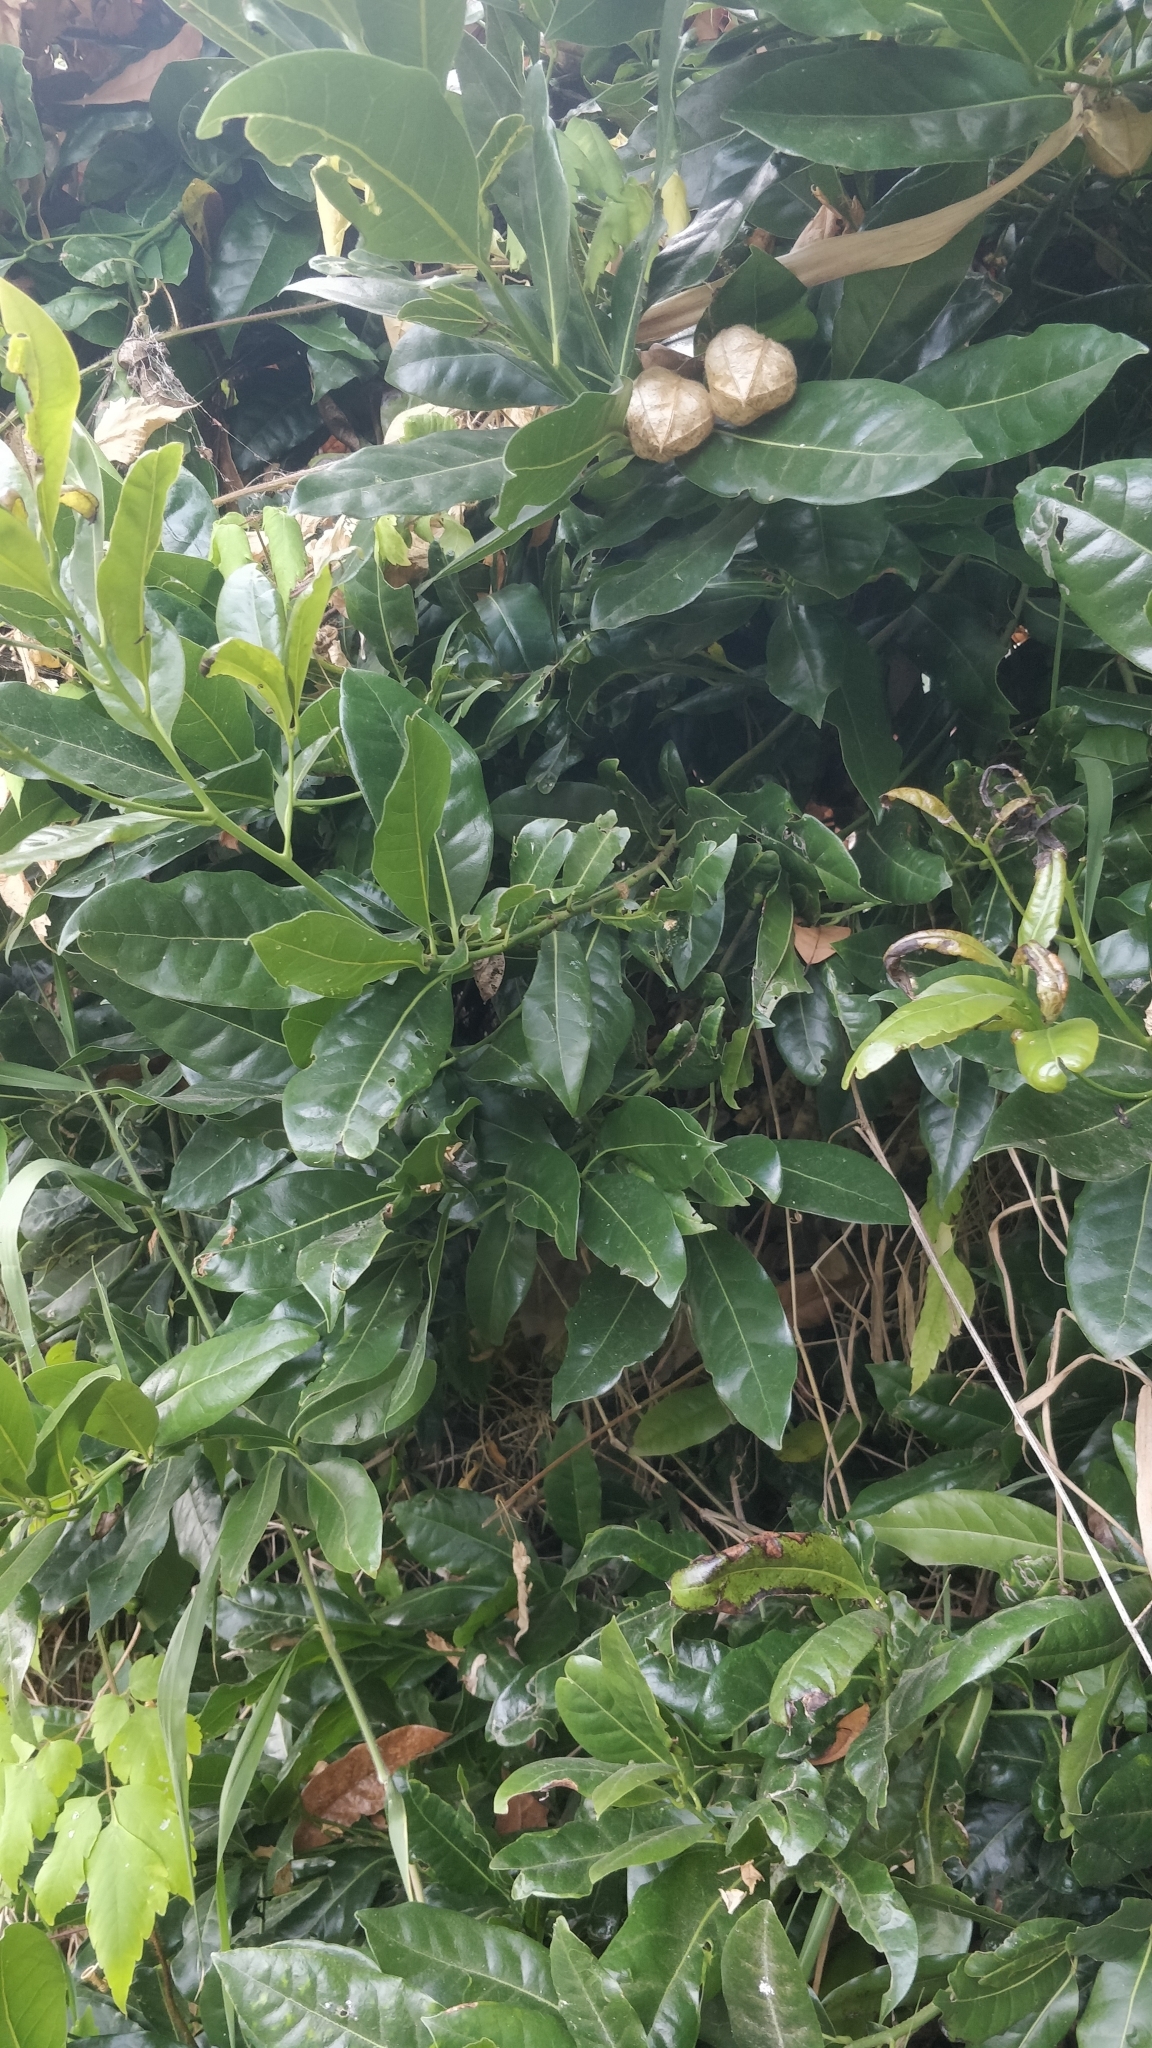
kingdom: Plantae
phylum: Tracheophyta
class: Magnoliopsida
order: Laurales
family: Lauraceae
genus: Apollonias
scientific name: Apollonias barbujana
